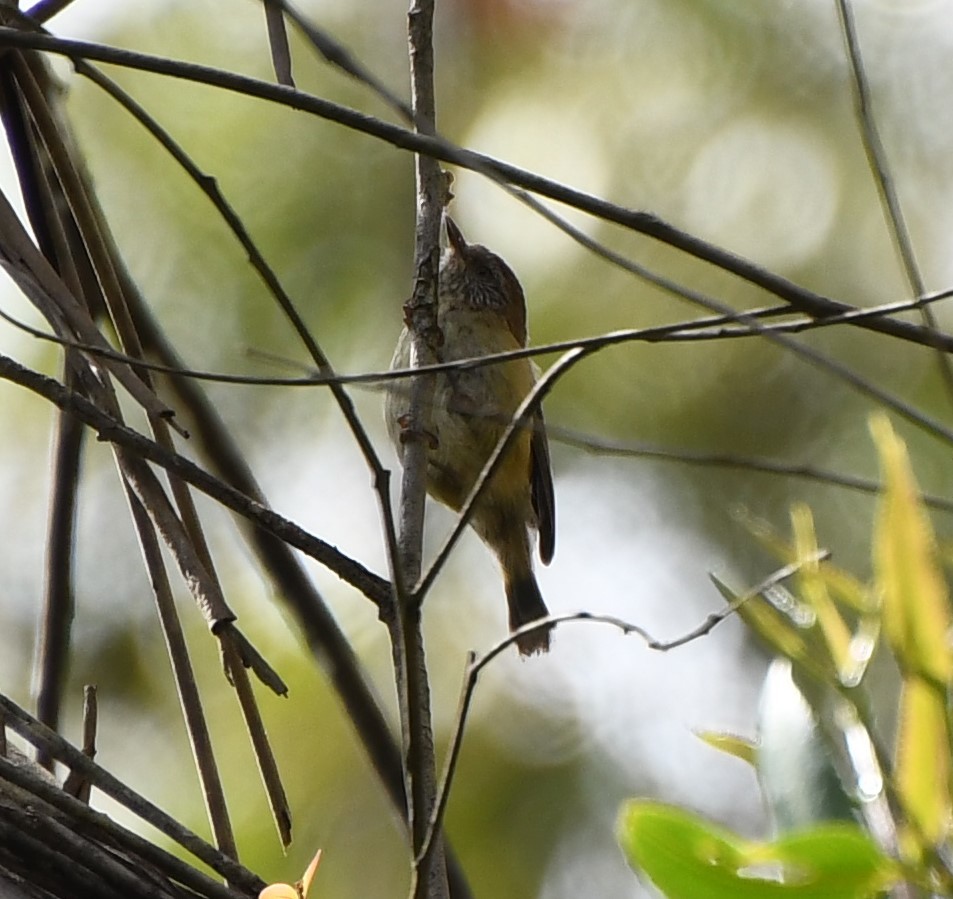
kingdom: Animalia
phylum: Chordata
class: Aves
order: Passeriformes
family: Acanthizidae
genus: Acanthiza
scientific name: Acanthiza lineata
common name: Striated thornbill
